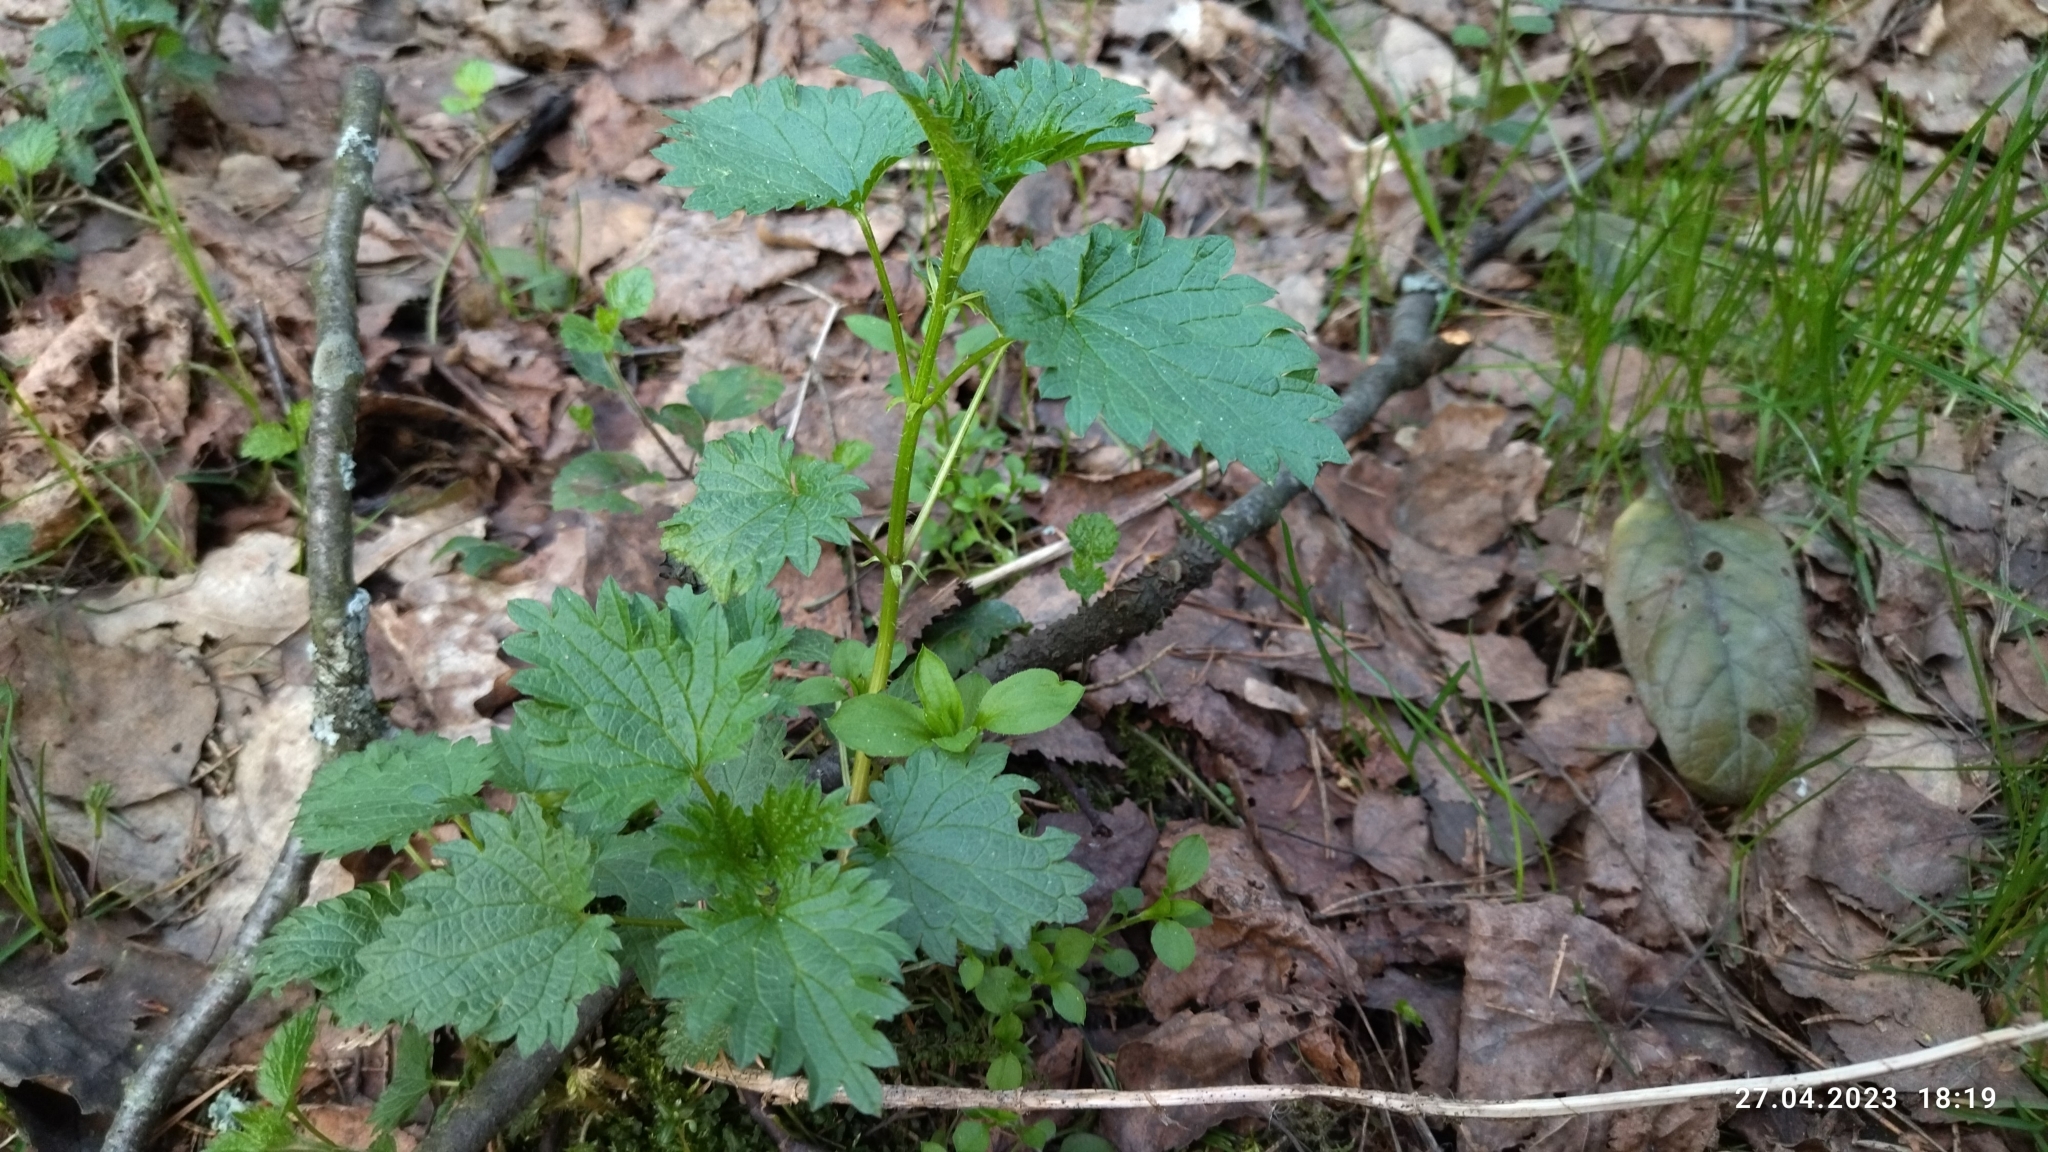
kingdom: Plantae
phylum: Tracheophyta
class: Magnoliopsida
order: Rosales
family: Urticaceae
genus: Urtica
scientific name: Urtica dioica
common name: Common nettle
